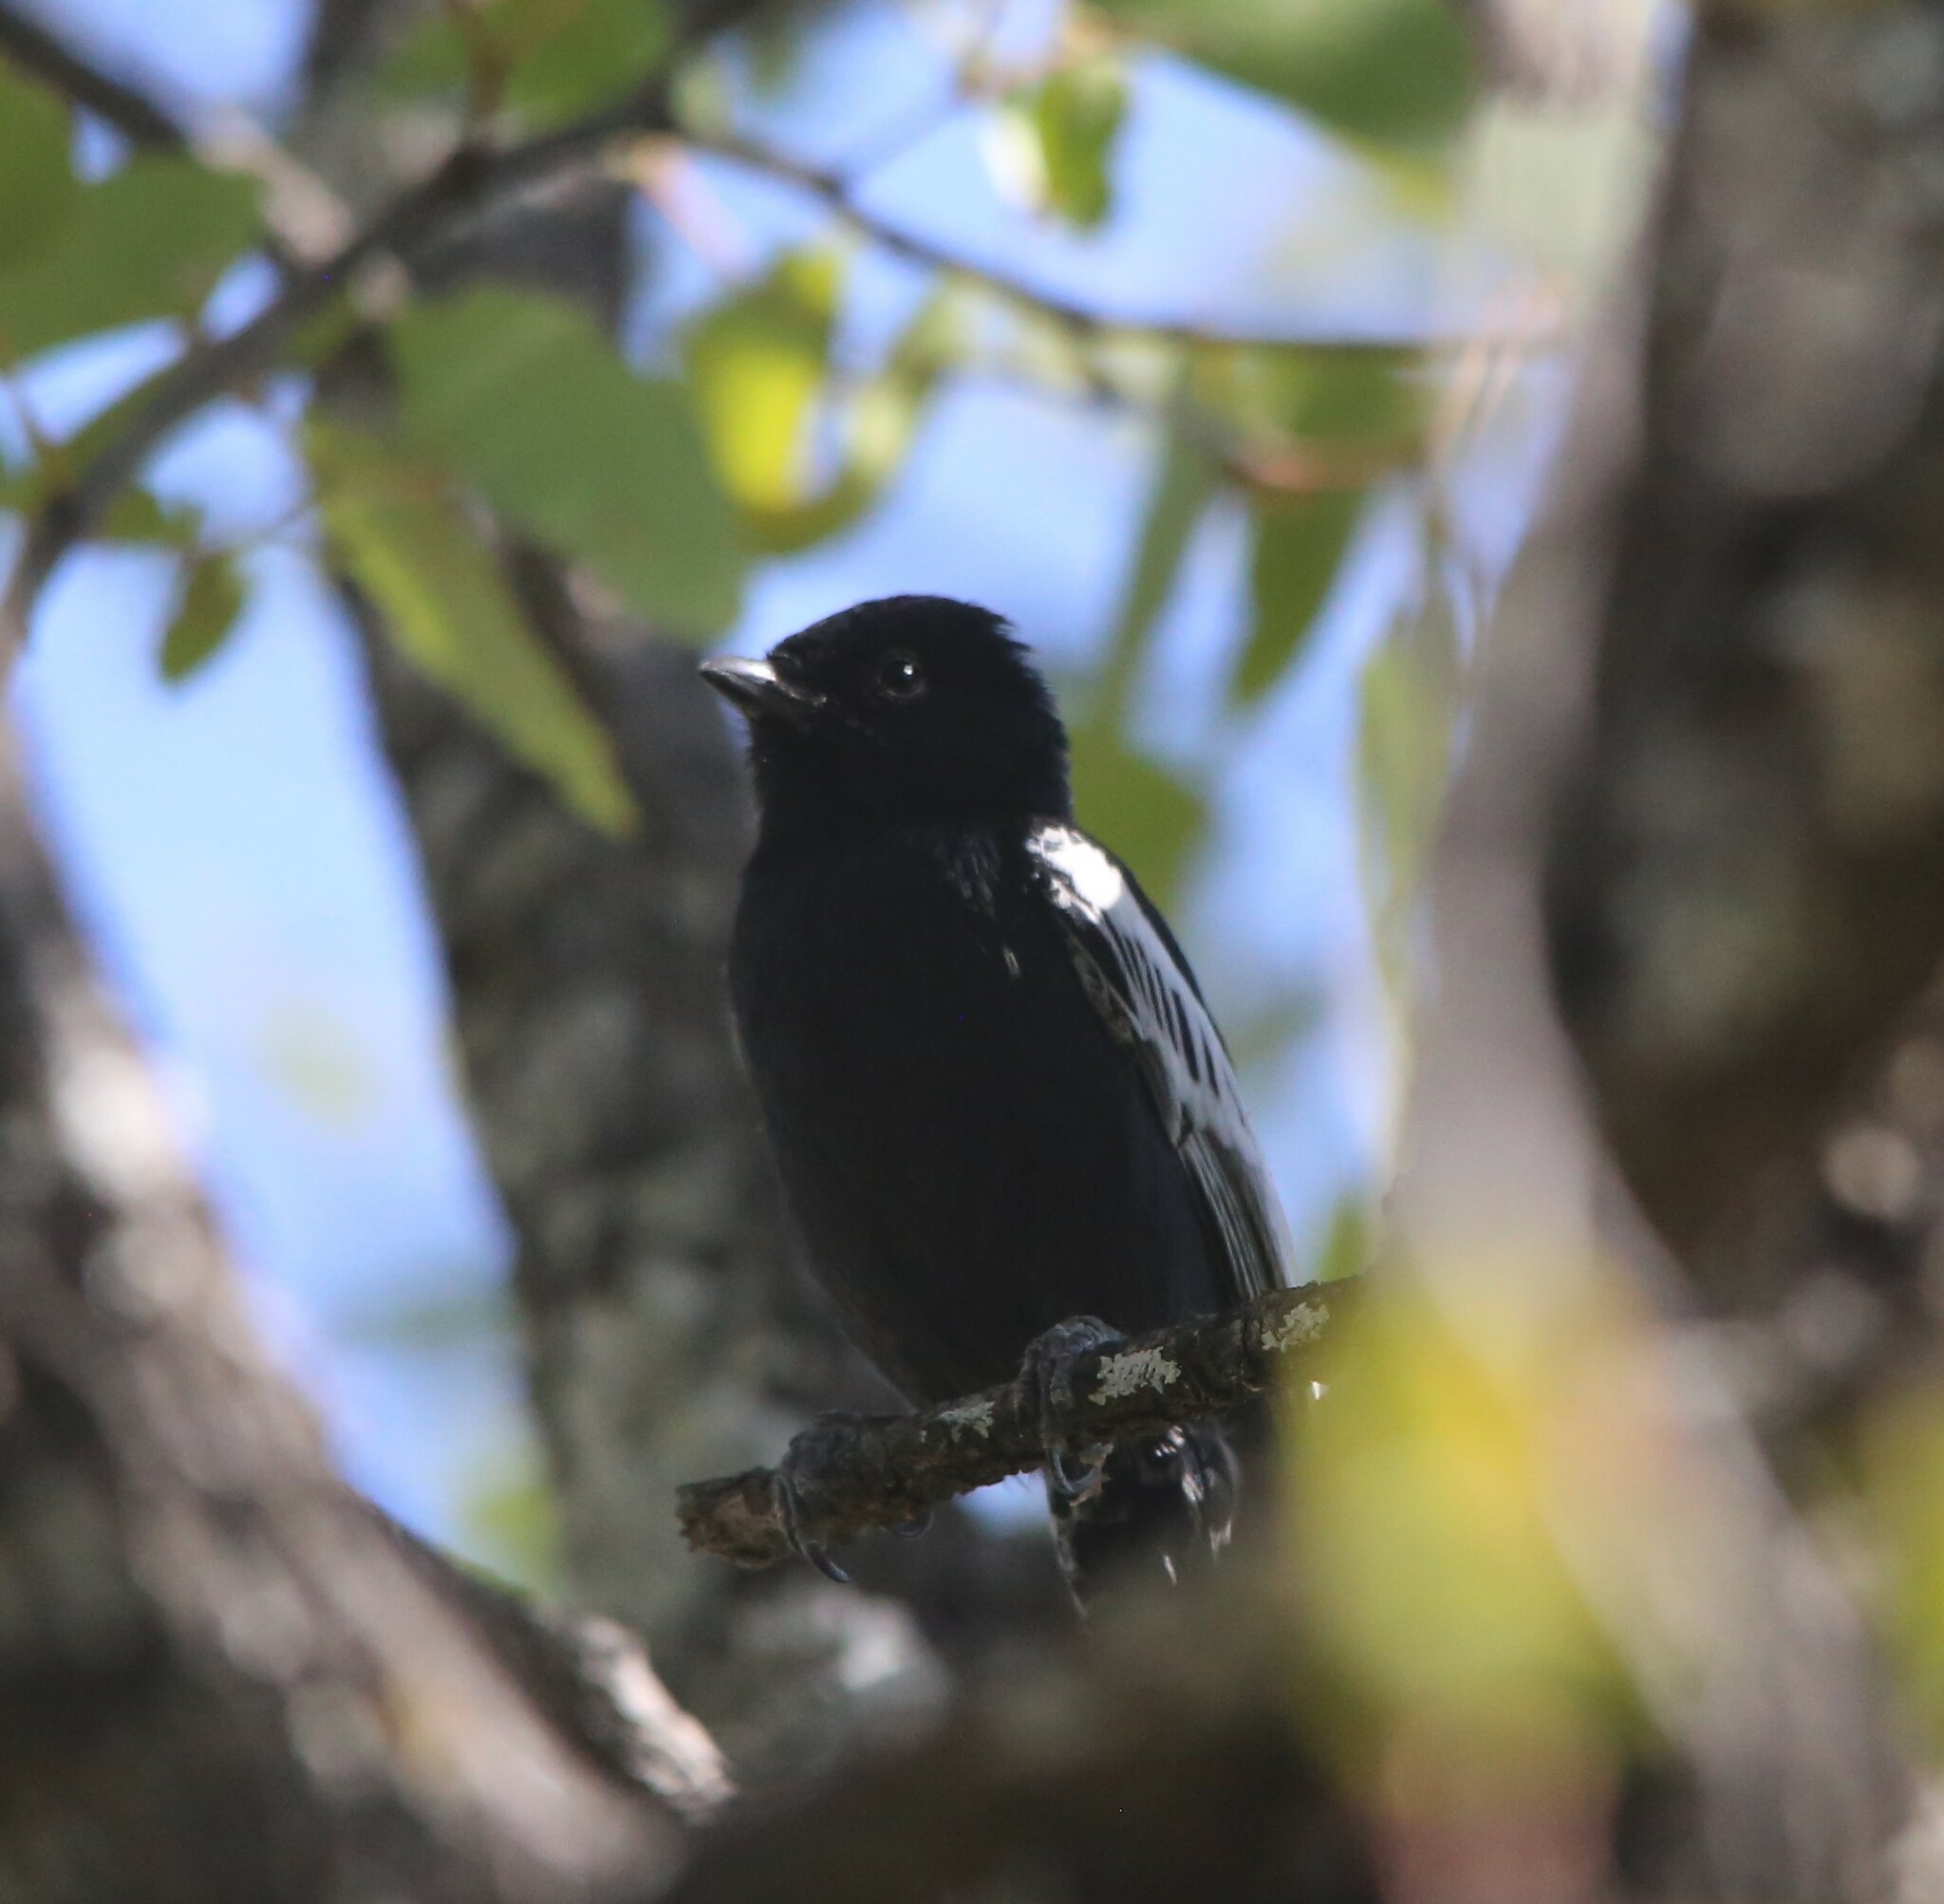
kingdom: Animalia
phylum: Chordata
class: Aves
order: Passeriformes
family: Paridae
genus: Parus
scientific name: Parus niger
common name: Southern black tit
